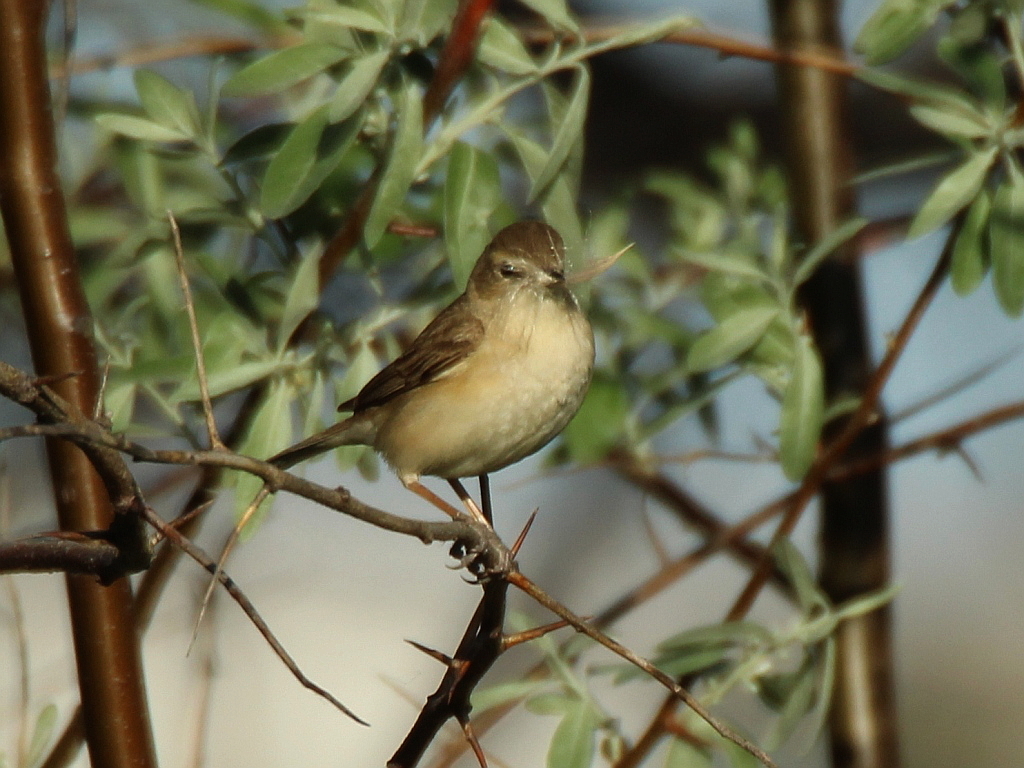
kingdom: Animalia
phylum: Chordata
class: Aves
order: Passeriformes
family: Acrocephalidae
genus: Iduna
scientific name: Iduna caligata
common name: Booted warbler
